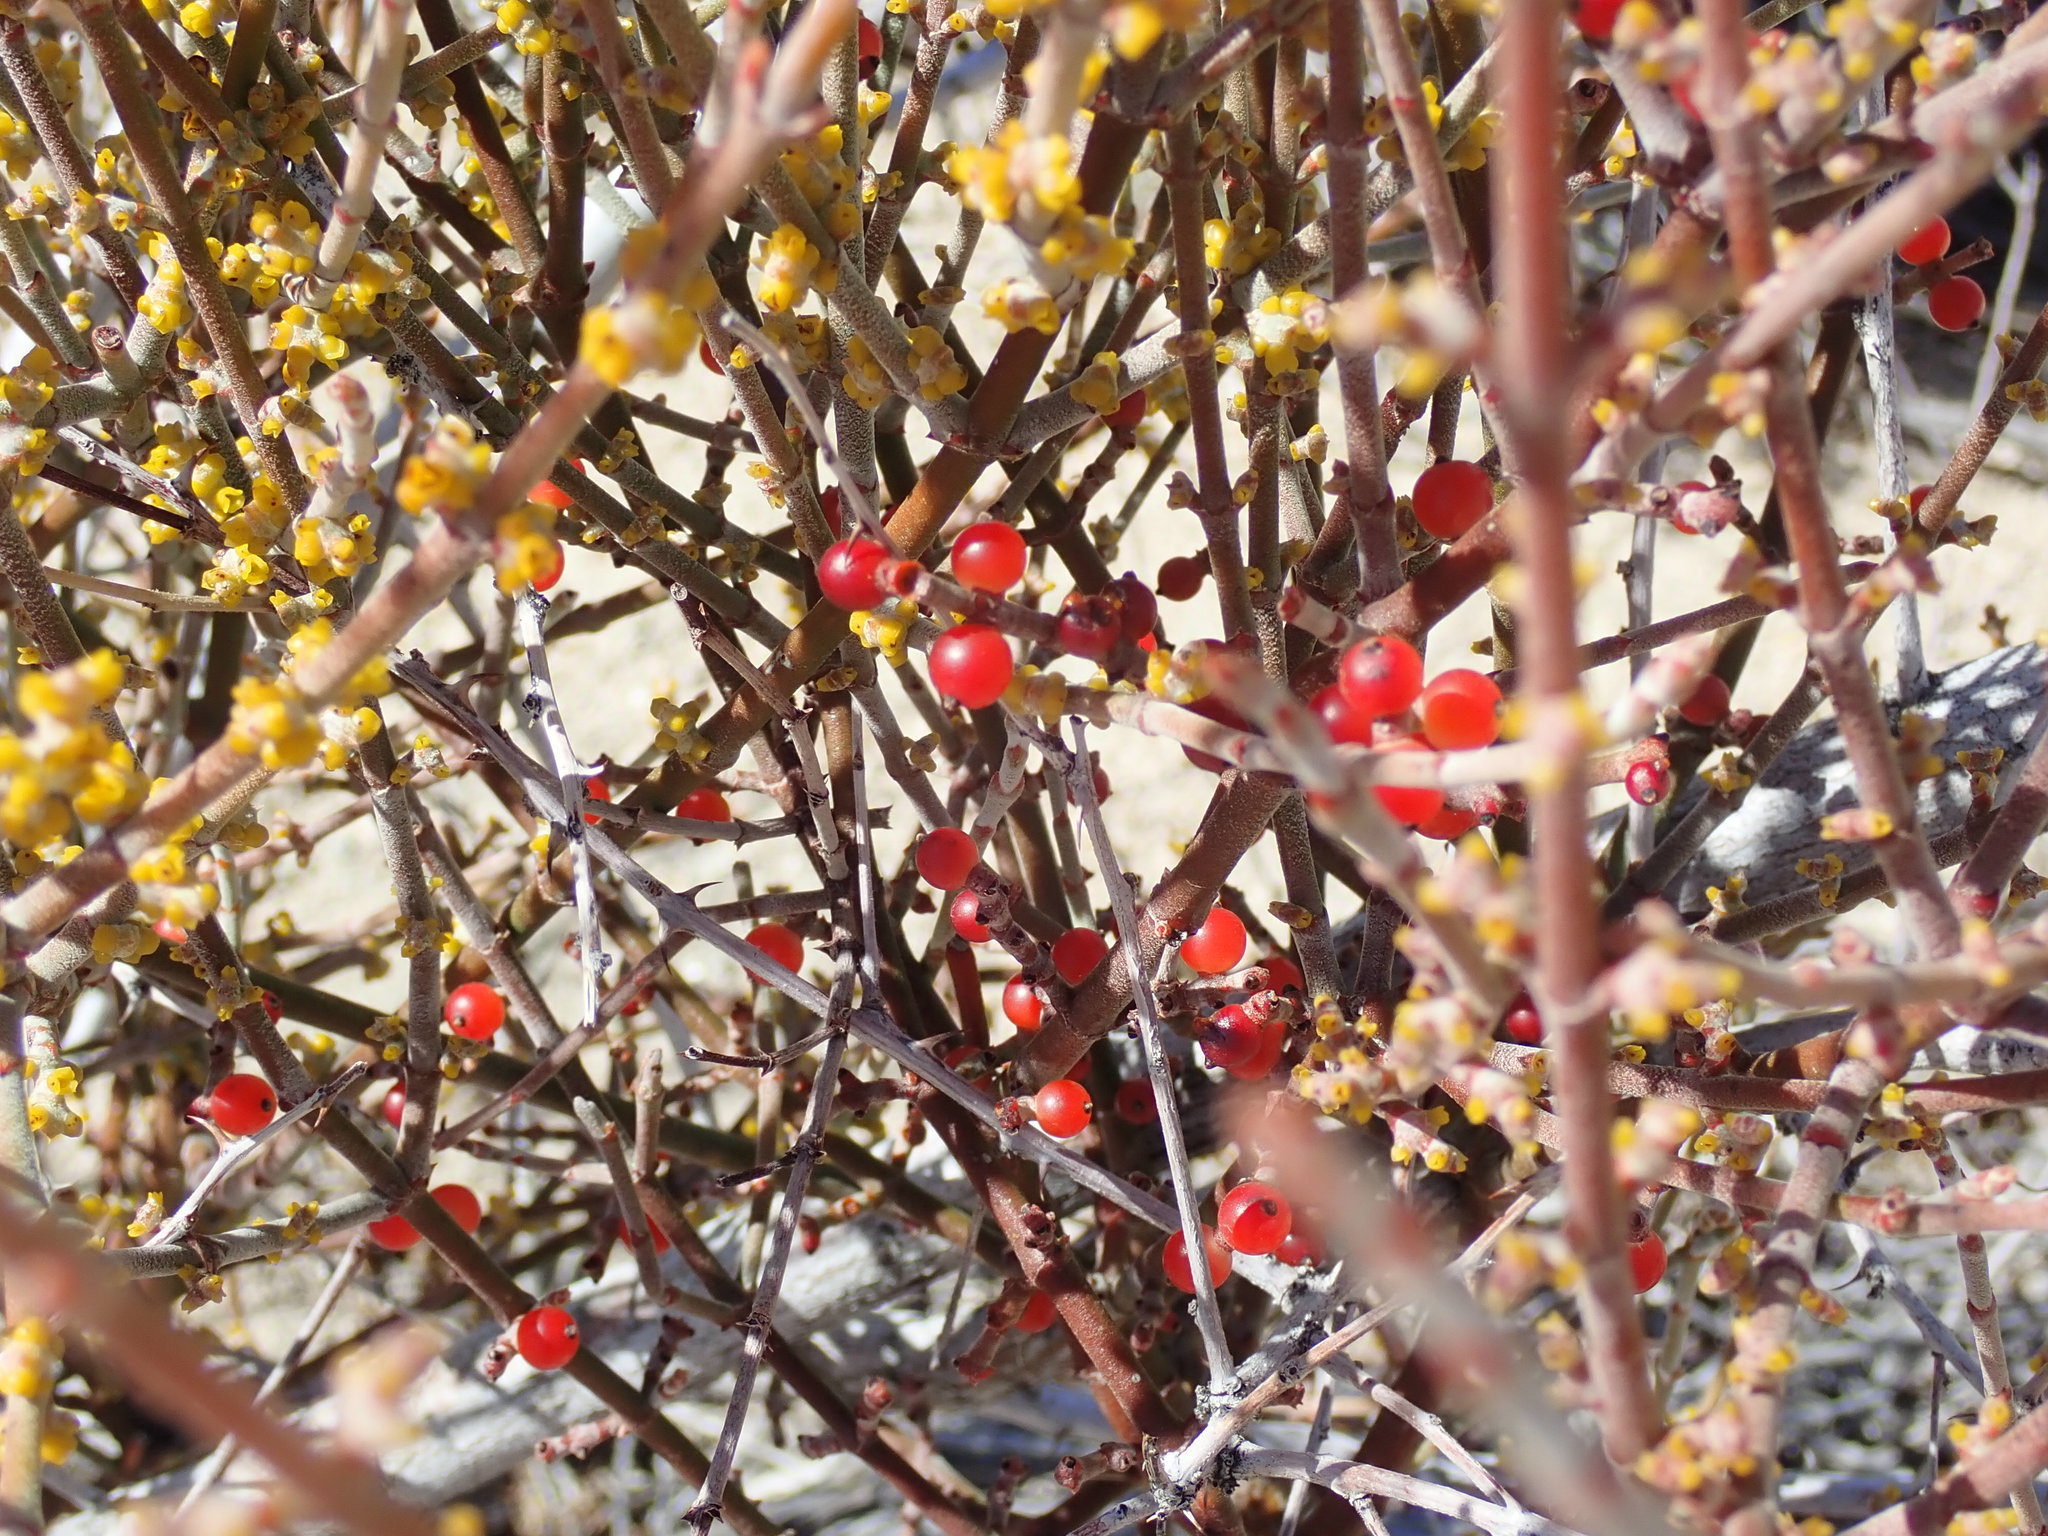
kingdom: Plantae
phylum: Tracheophyta
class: Magnoliopsida
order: Santalales
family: Viscaceae
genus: Phoradendron
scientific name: Phoradendron californicum
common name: Acacia mistletoe
